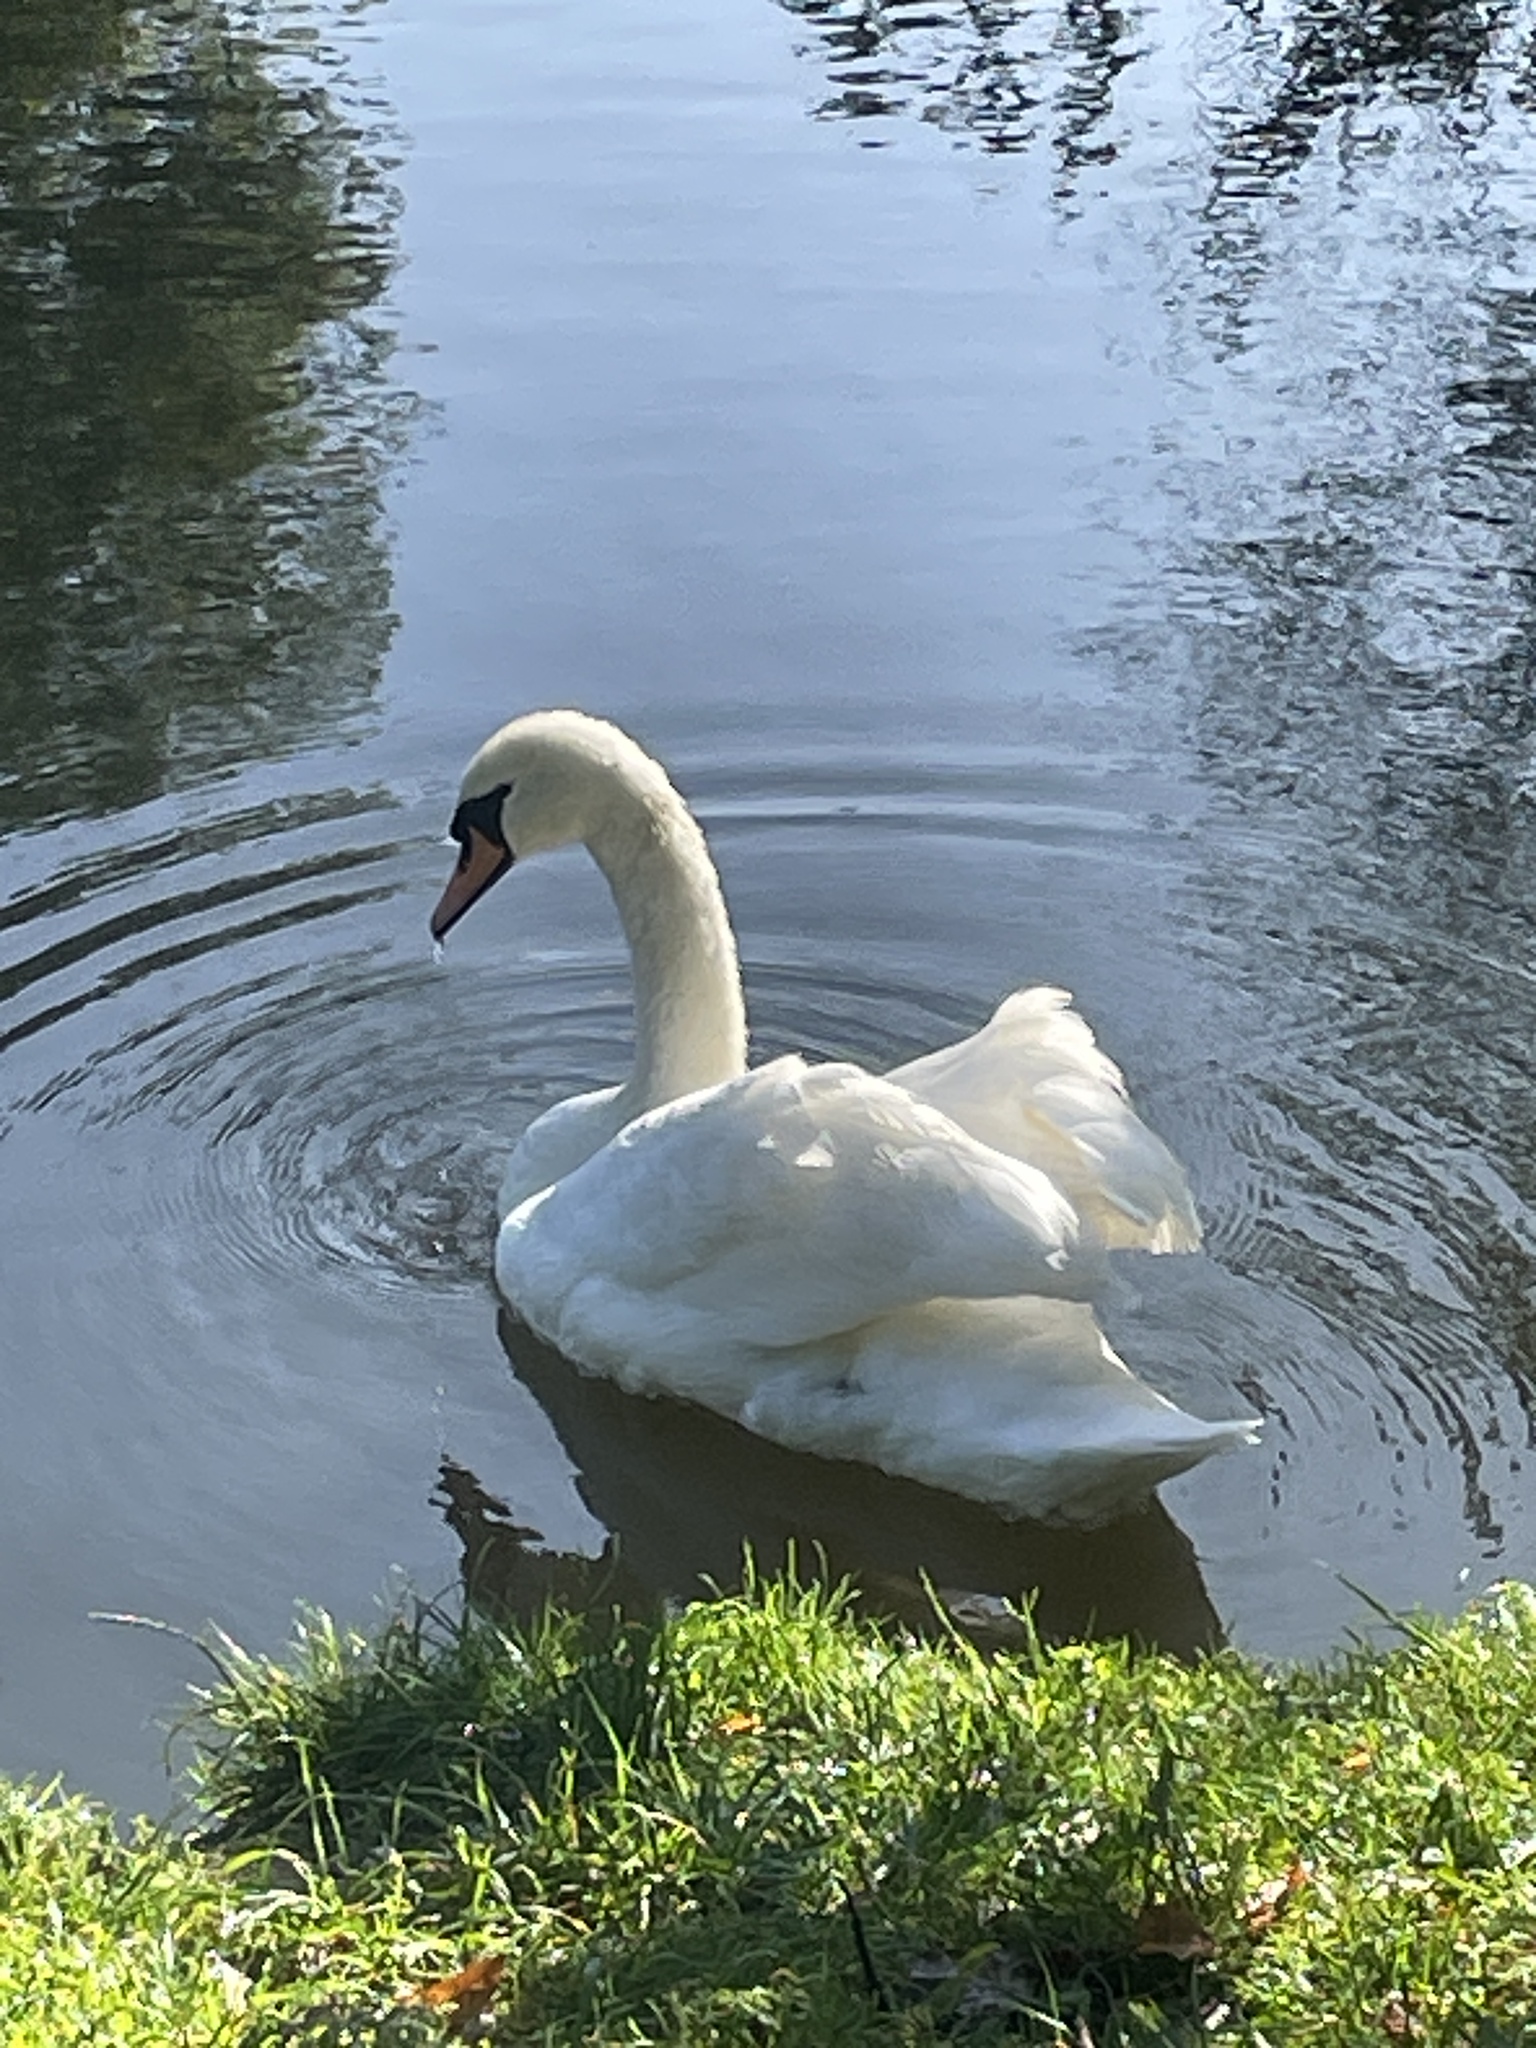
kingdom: Animalia
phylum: Chordata
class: Aves
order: Anseriformes
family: Anatidae
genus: Cygnus
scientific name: Cygnus olor
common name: Mute swan
